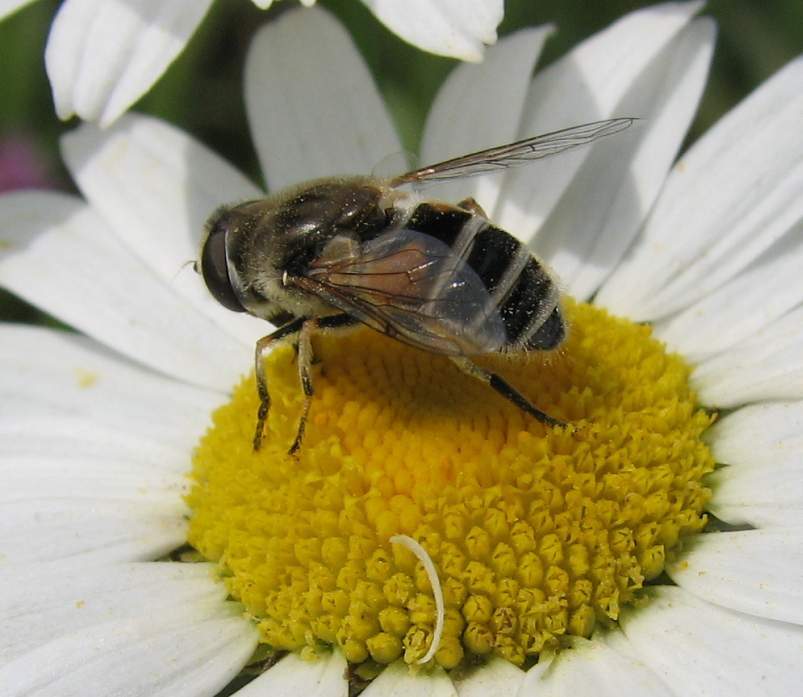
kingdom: Animalia
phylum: Arthropoda
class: Insecta
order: Diptera
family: Syrphidae
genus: Eristalis
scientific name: Eristalis arbustorum
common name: Hover fly
